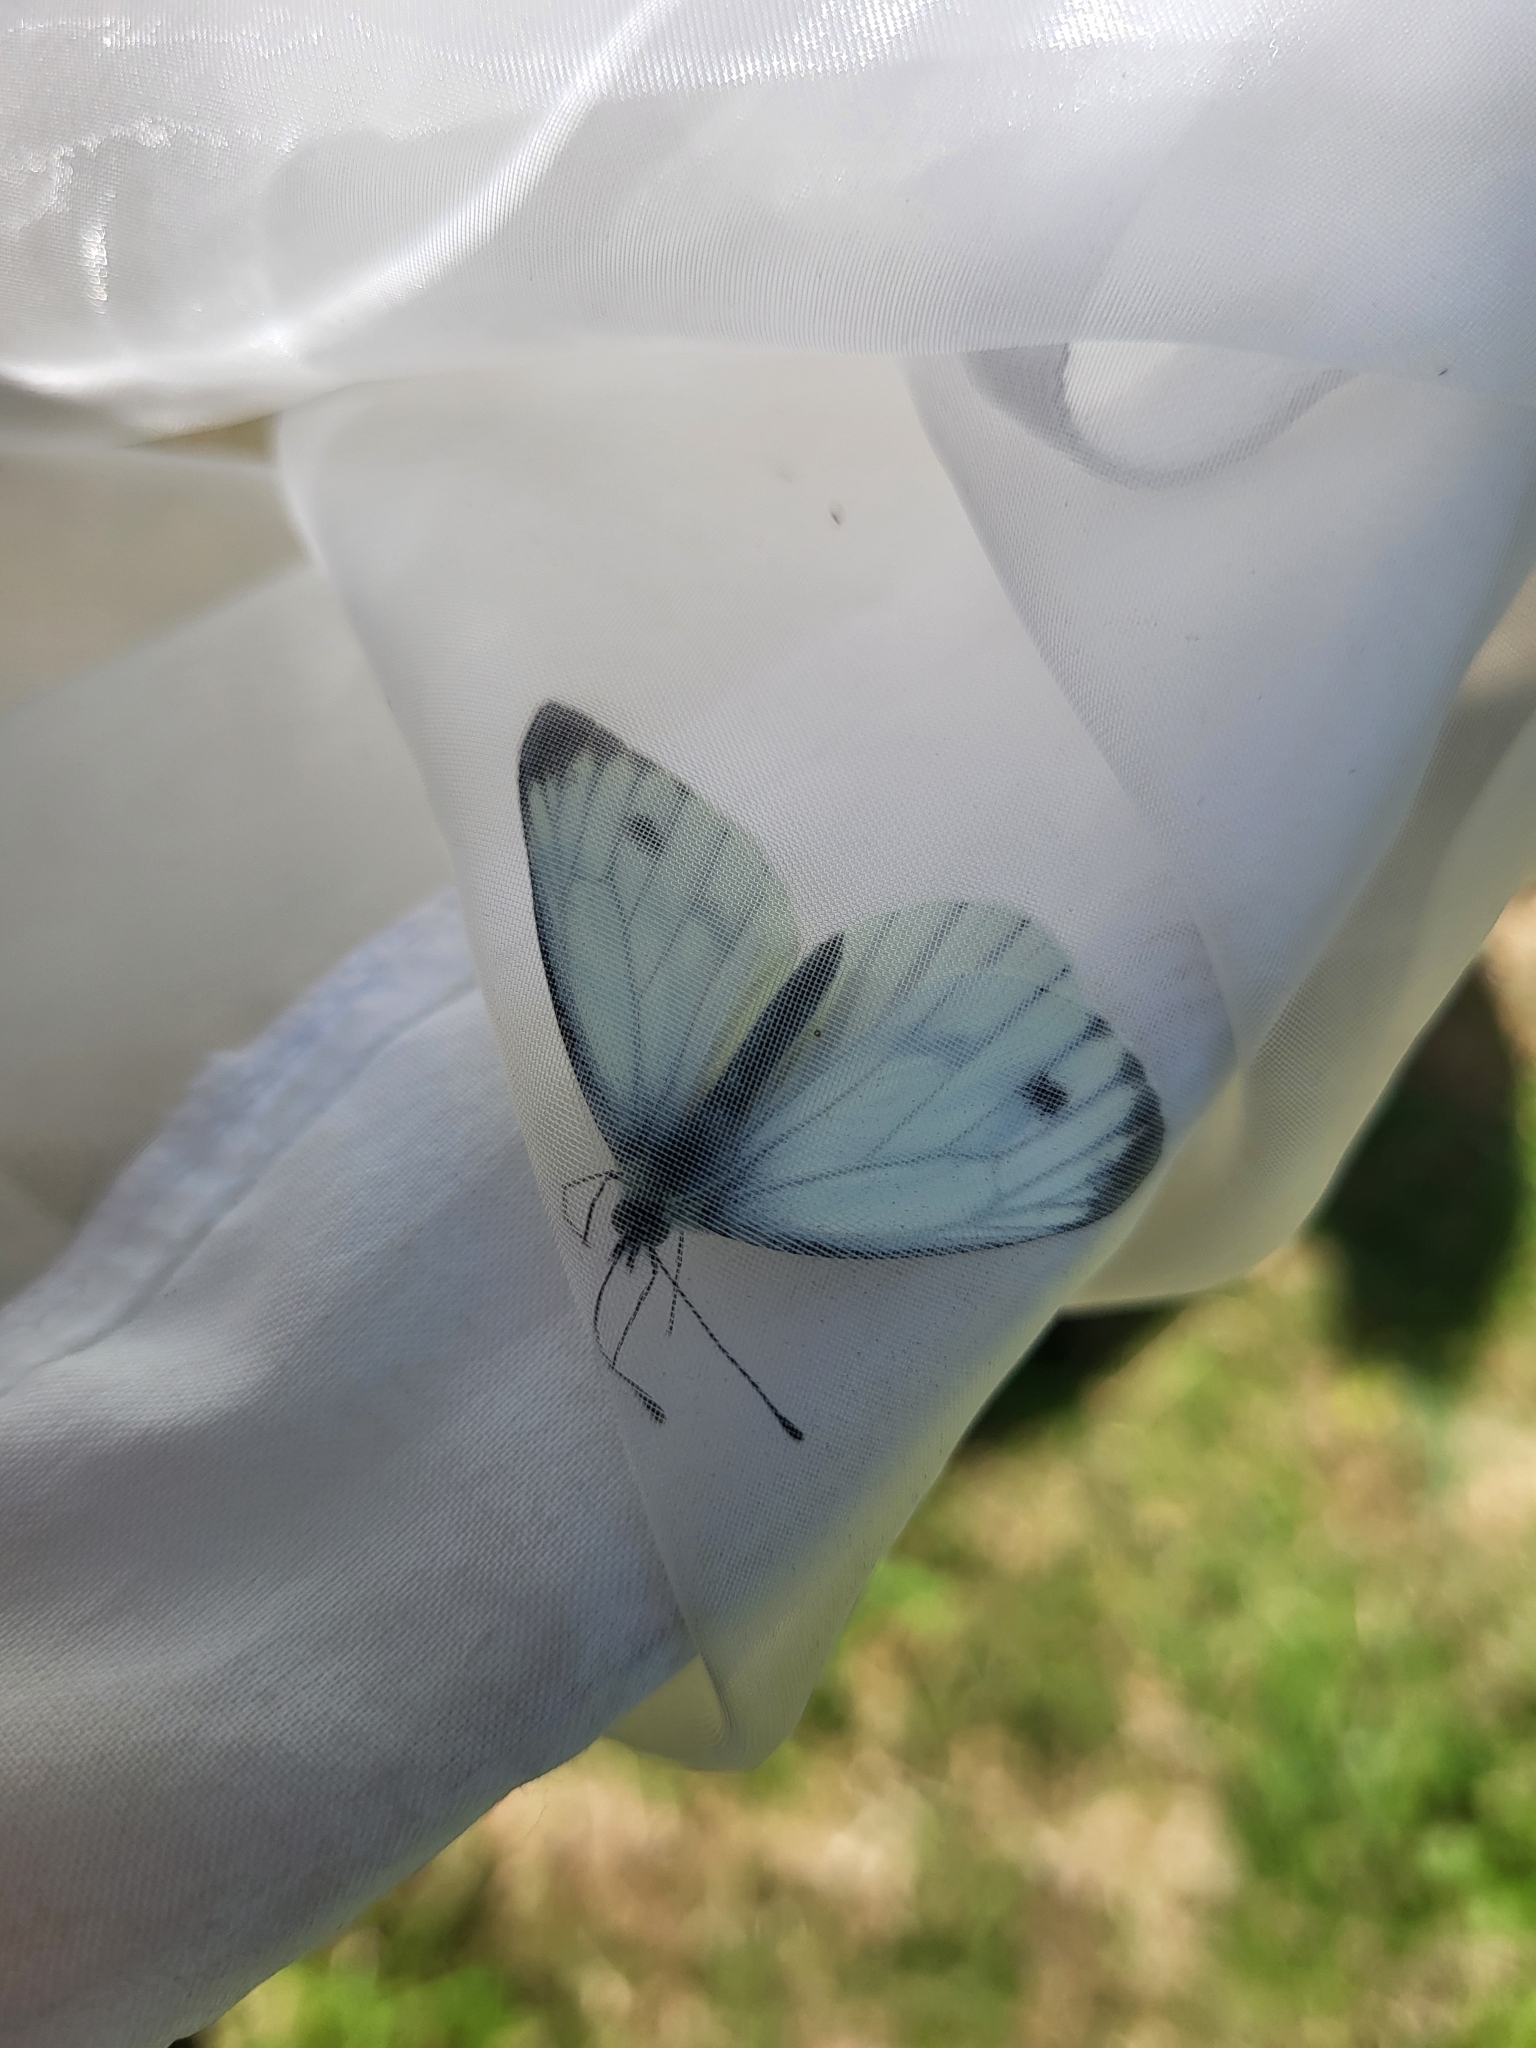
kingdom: Animalia
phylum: Arthropoda
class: Insecta
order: Lepidoptera
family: Pieridae
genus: Pieris
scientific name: Pieris napi
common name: Green-veined white
